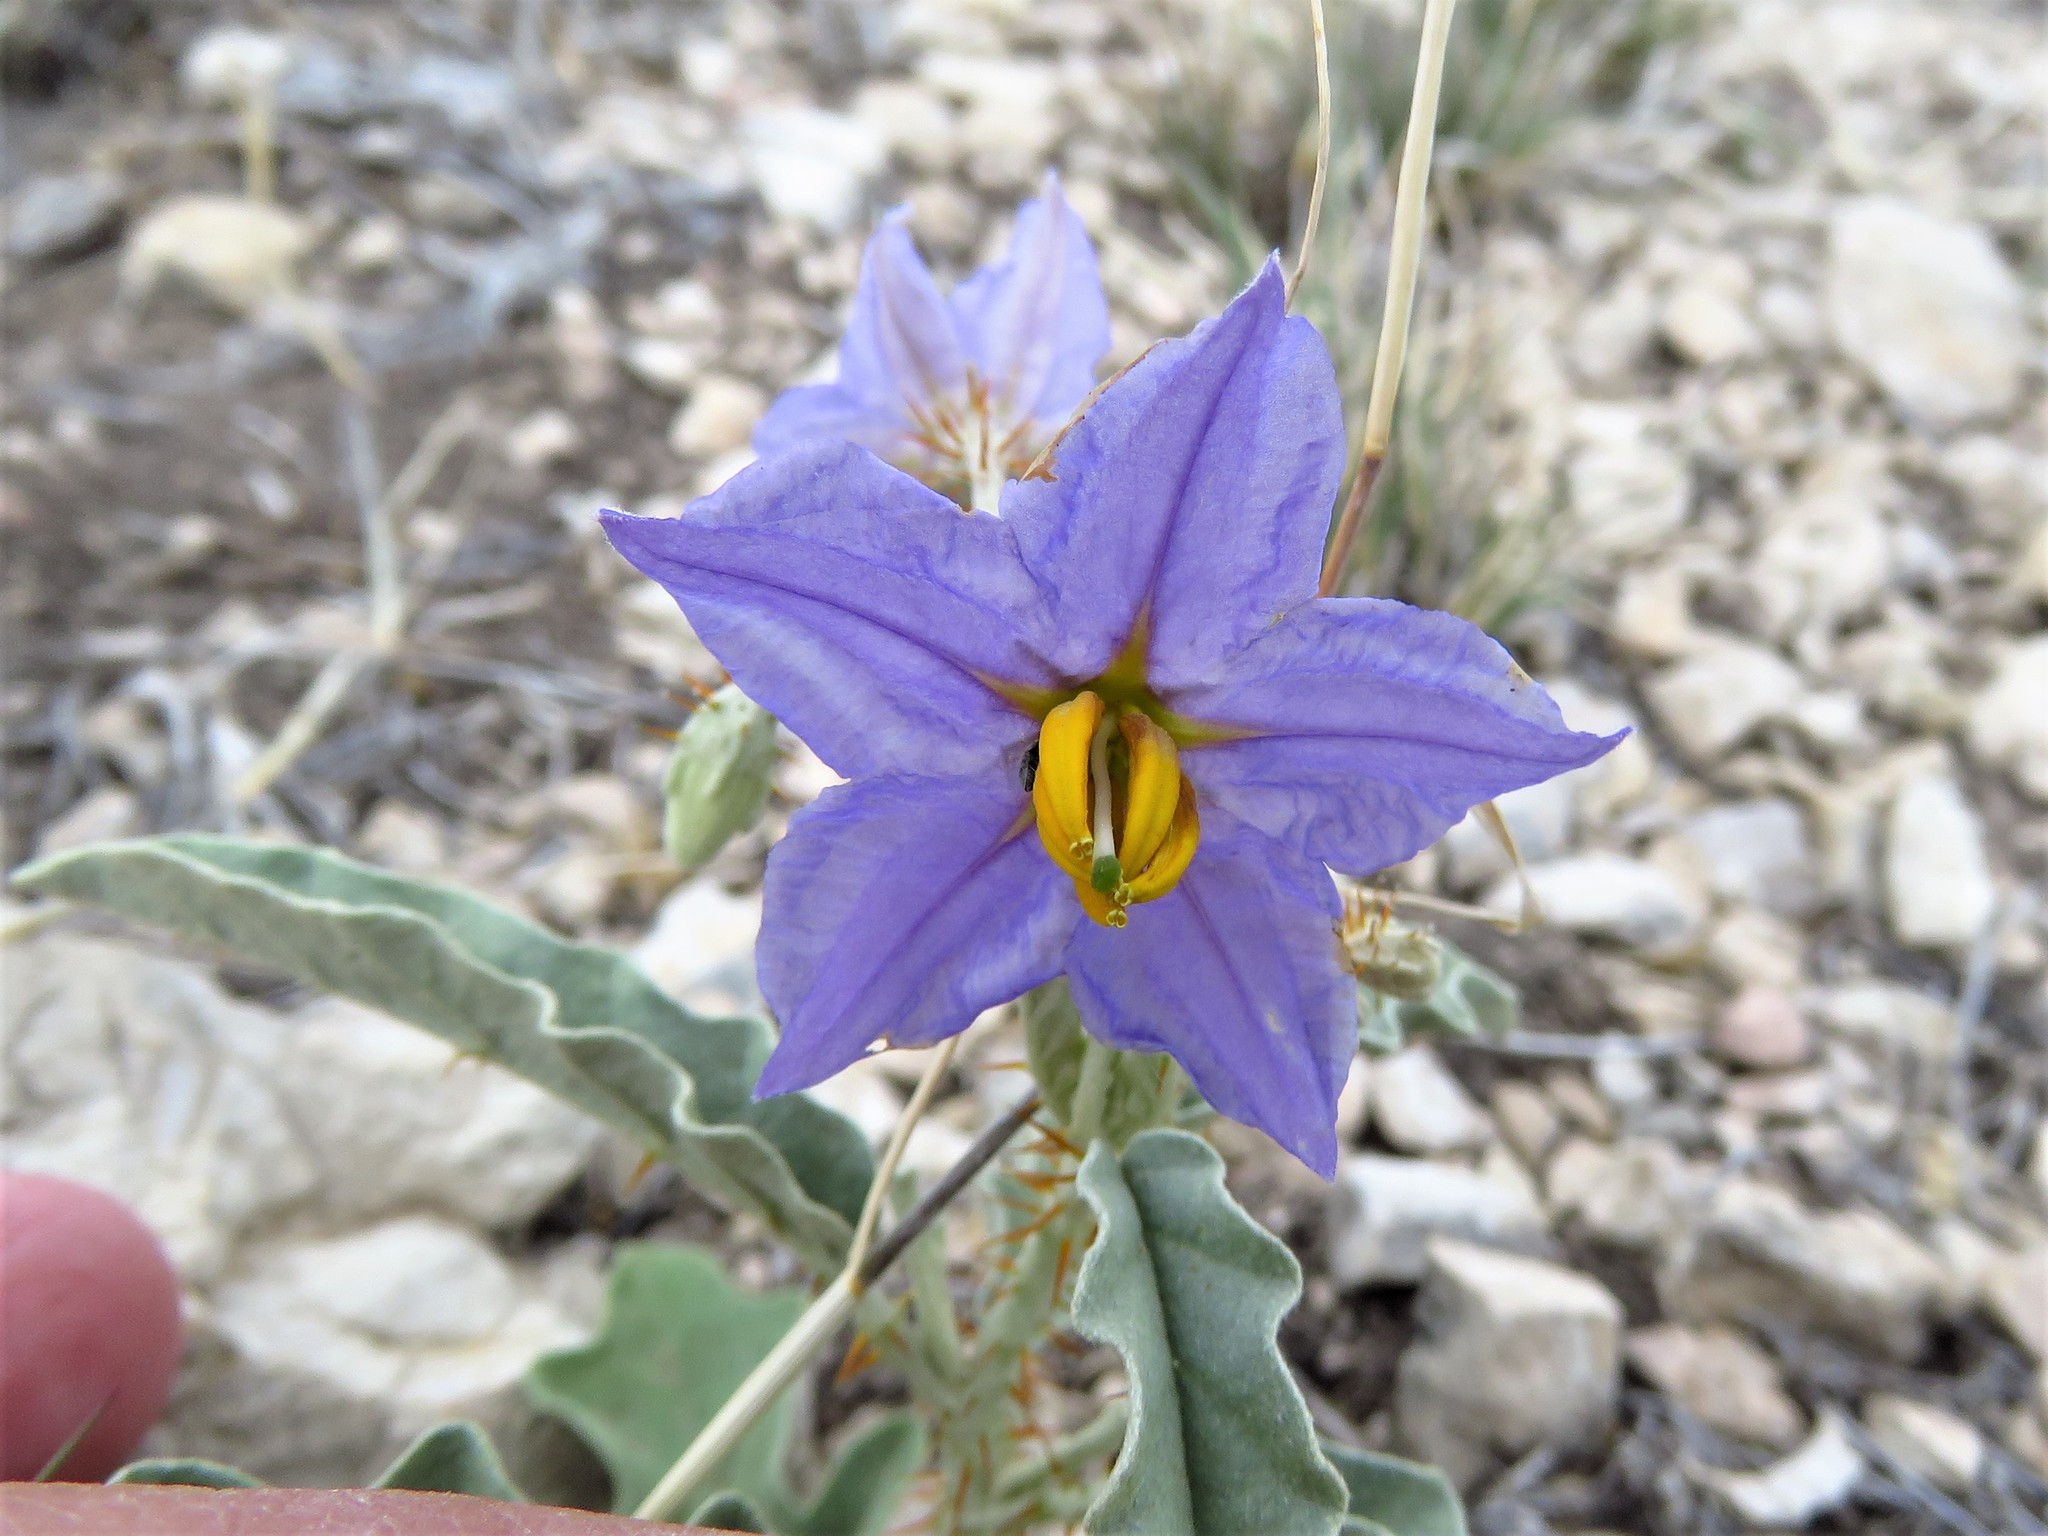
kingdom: Plantae
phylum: Tracheophyta
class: Magnoliopsida
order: Solanales
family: Solanaceae
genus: Solanum
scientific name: Solanum elaeagnifolium
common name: Silverleaf nightshade
